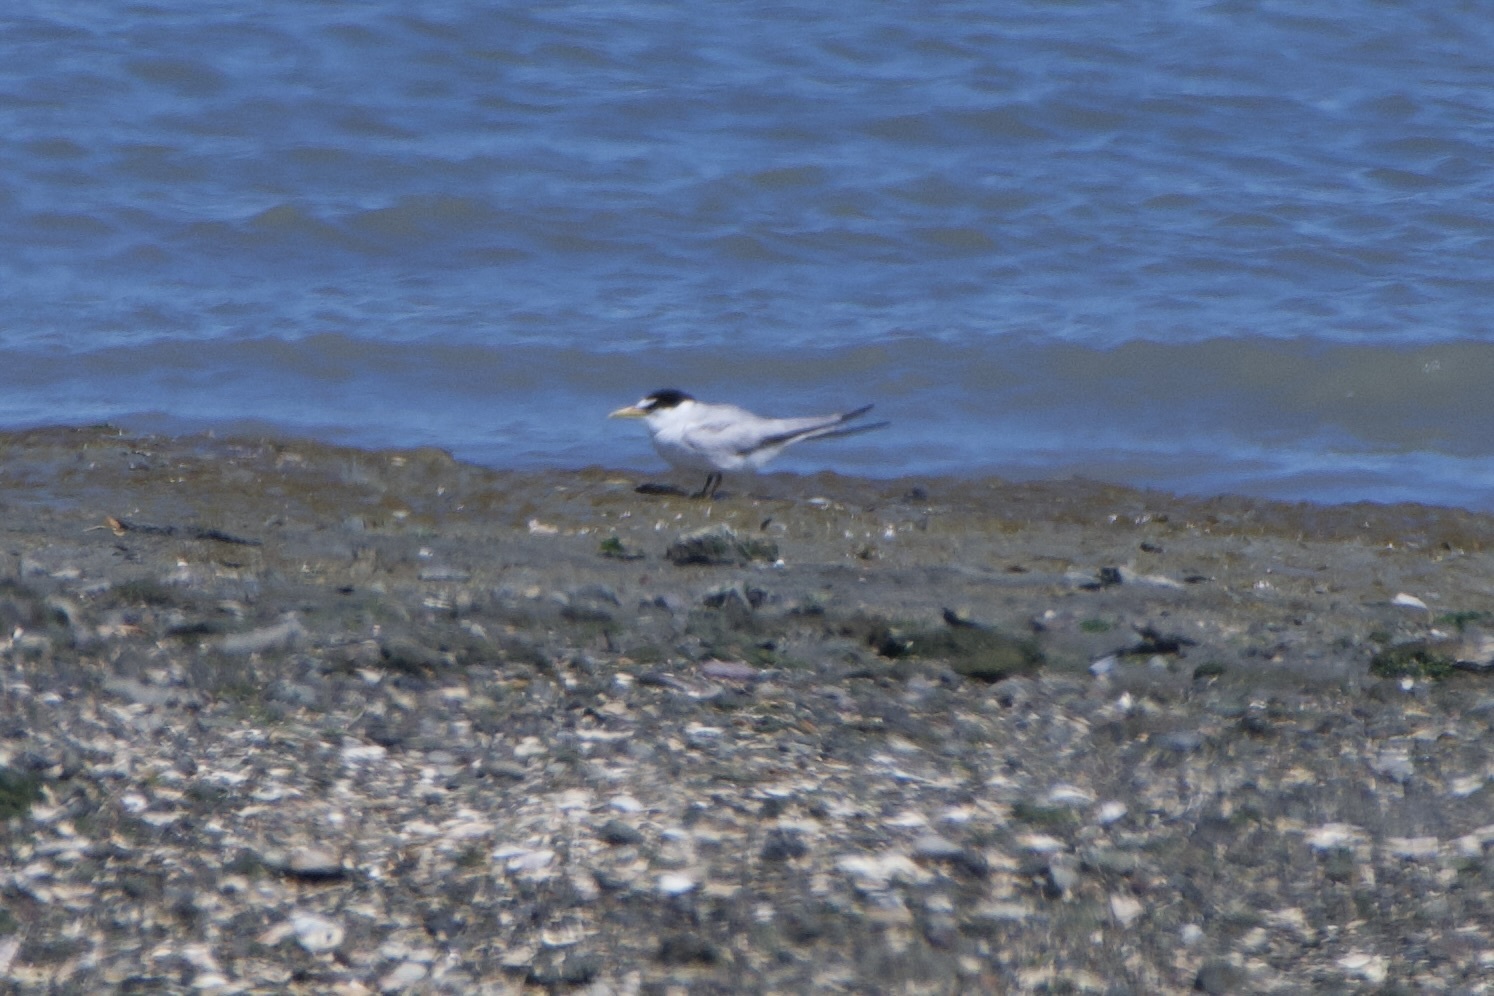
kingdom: Animalia
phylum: Chordata
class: Aves
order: Charadriiformes
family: Laridae
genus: Sternula
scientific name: Sternula antillarum
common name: Least tern
